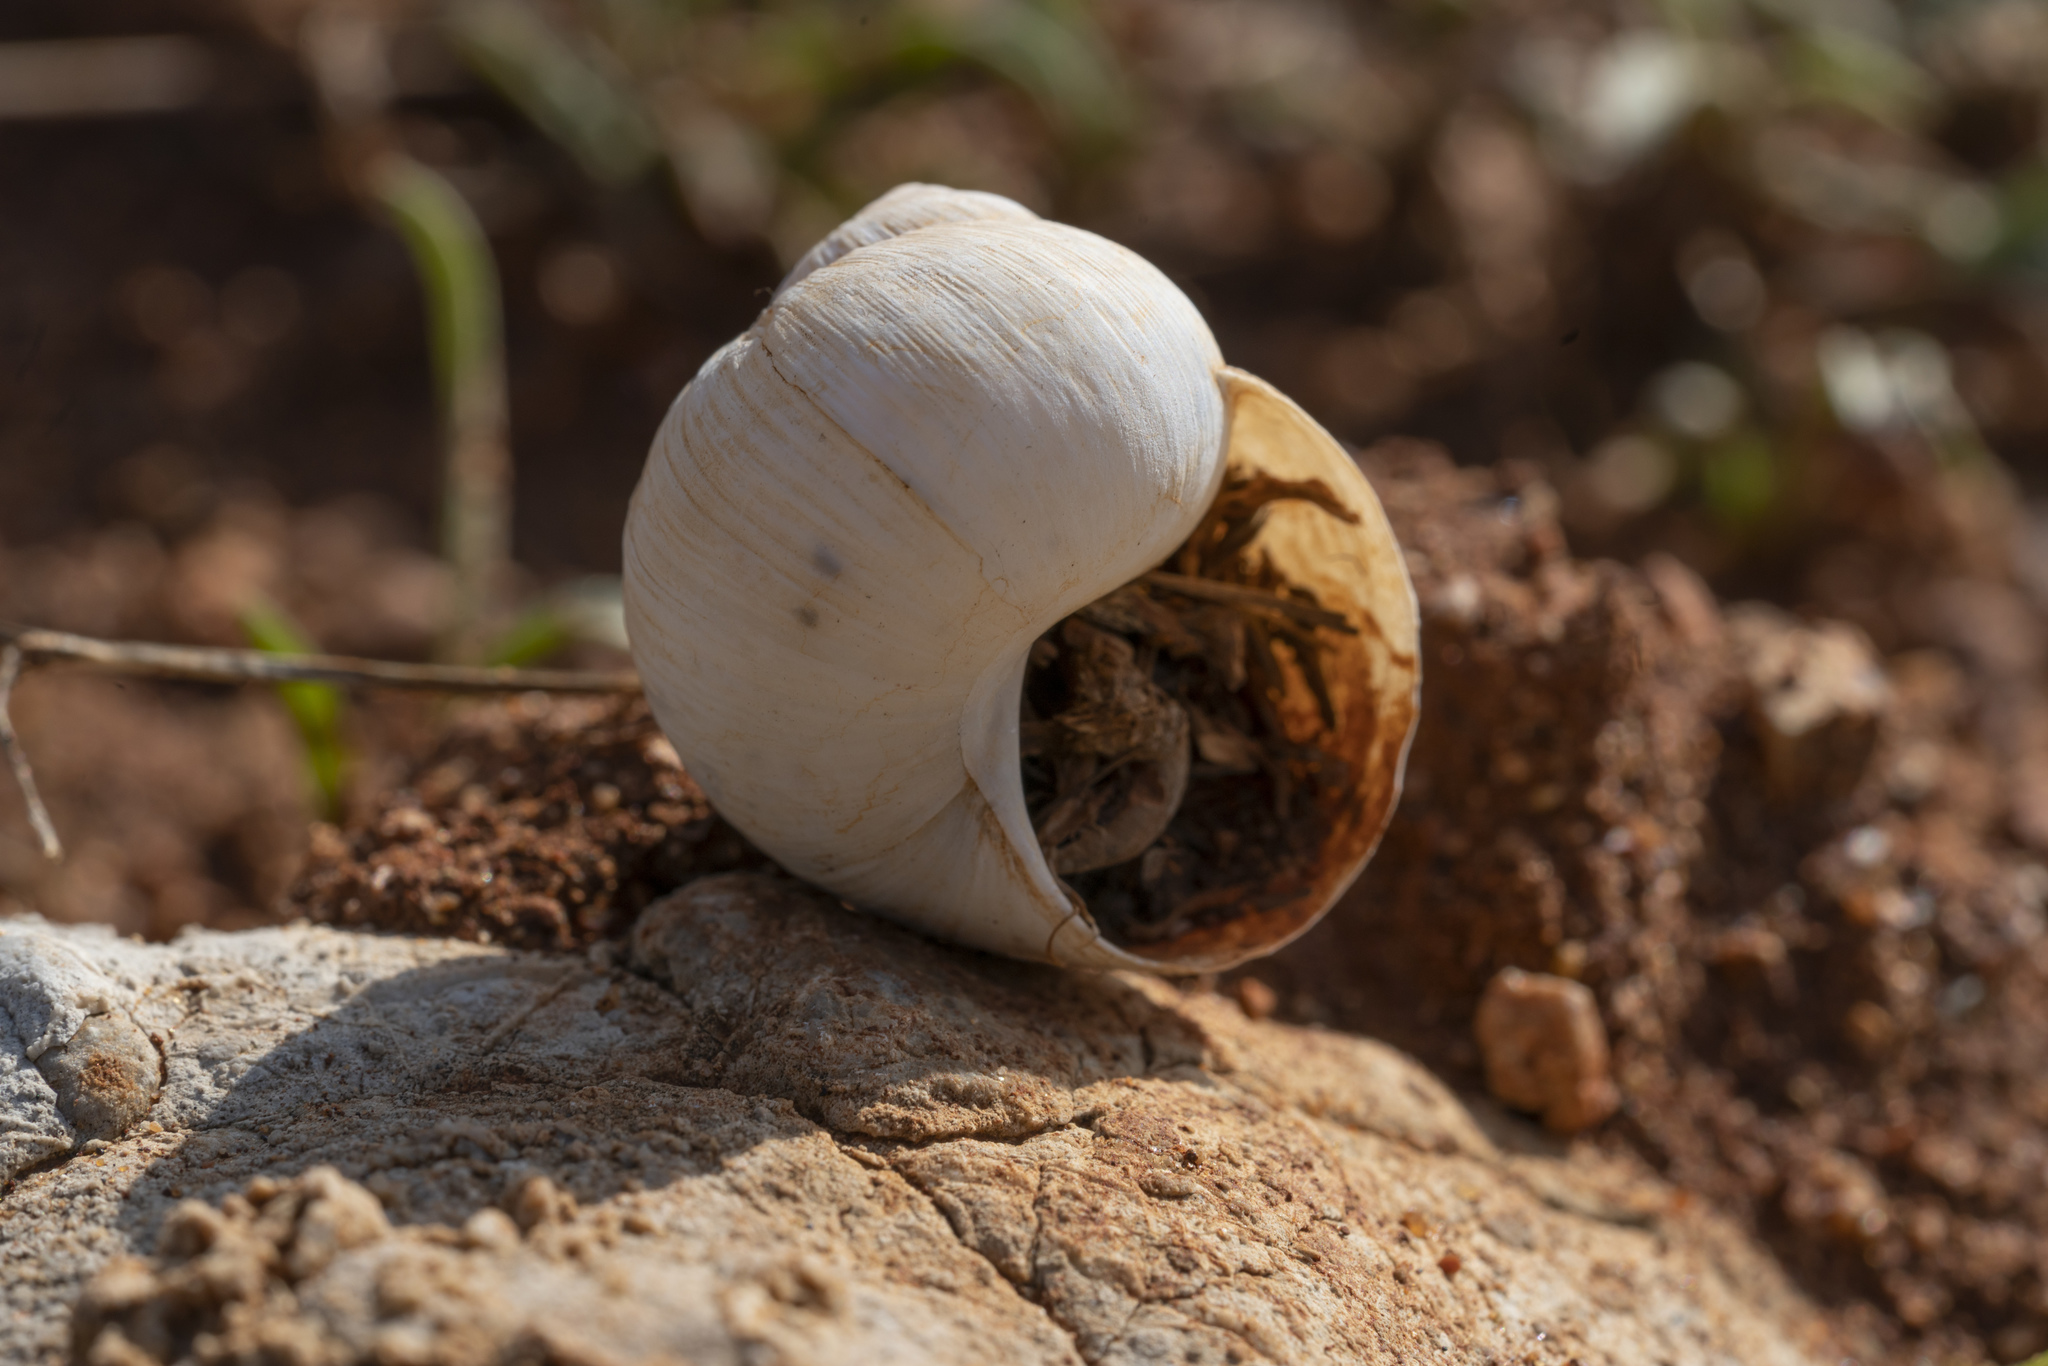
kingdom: Animalia
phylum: Mollusca
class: Gastropoda
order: Stylommatophora
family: Helicidae
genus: Helix
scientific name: Helix nucula
